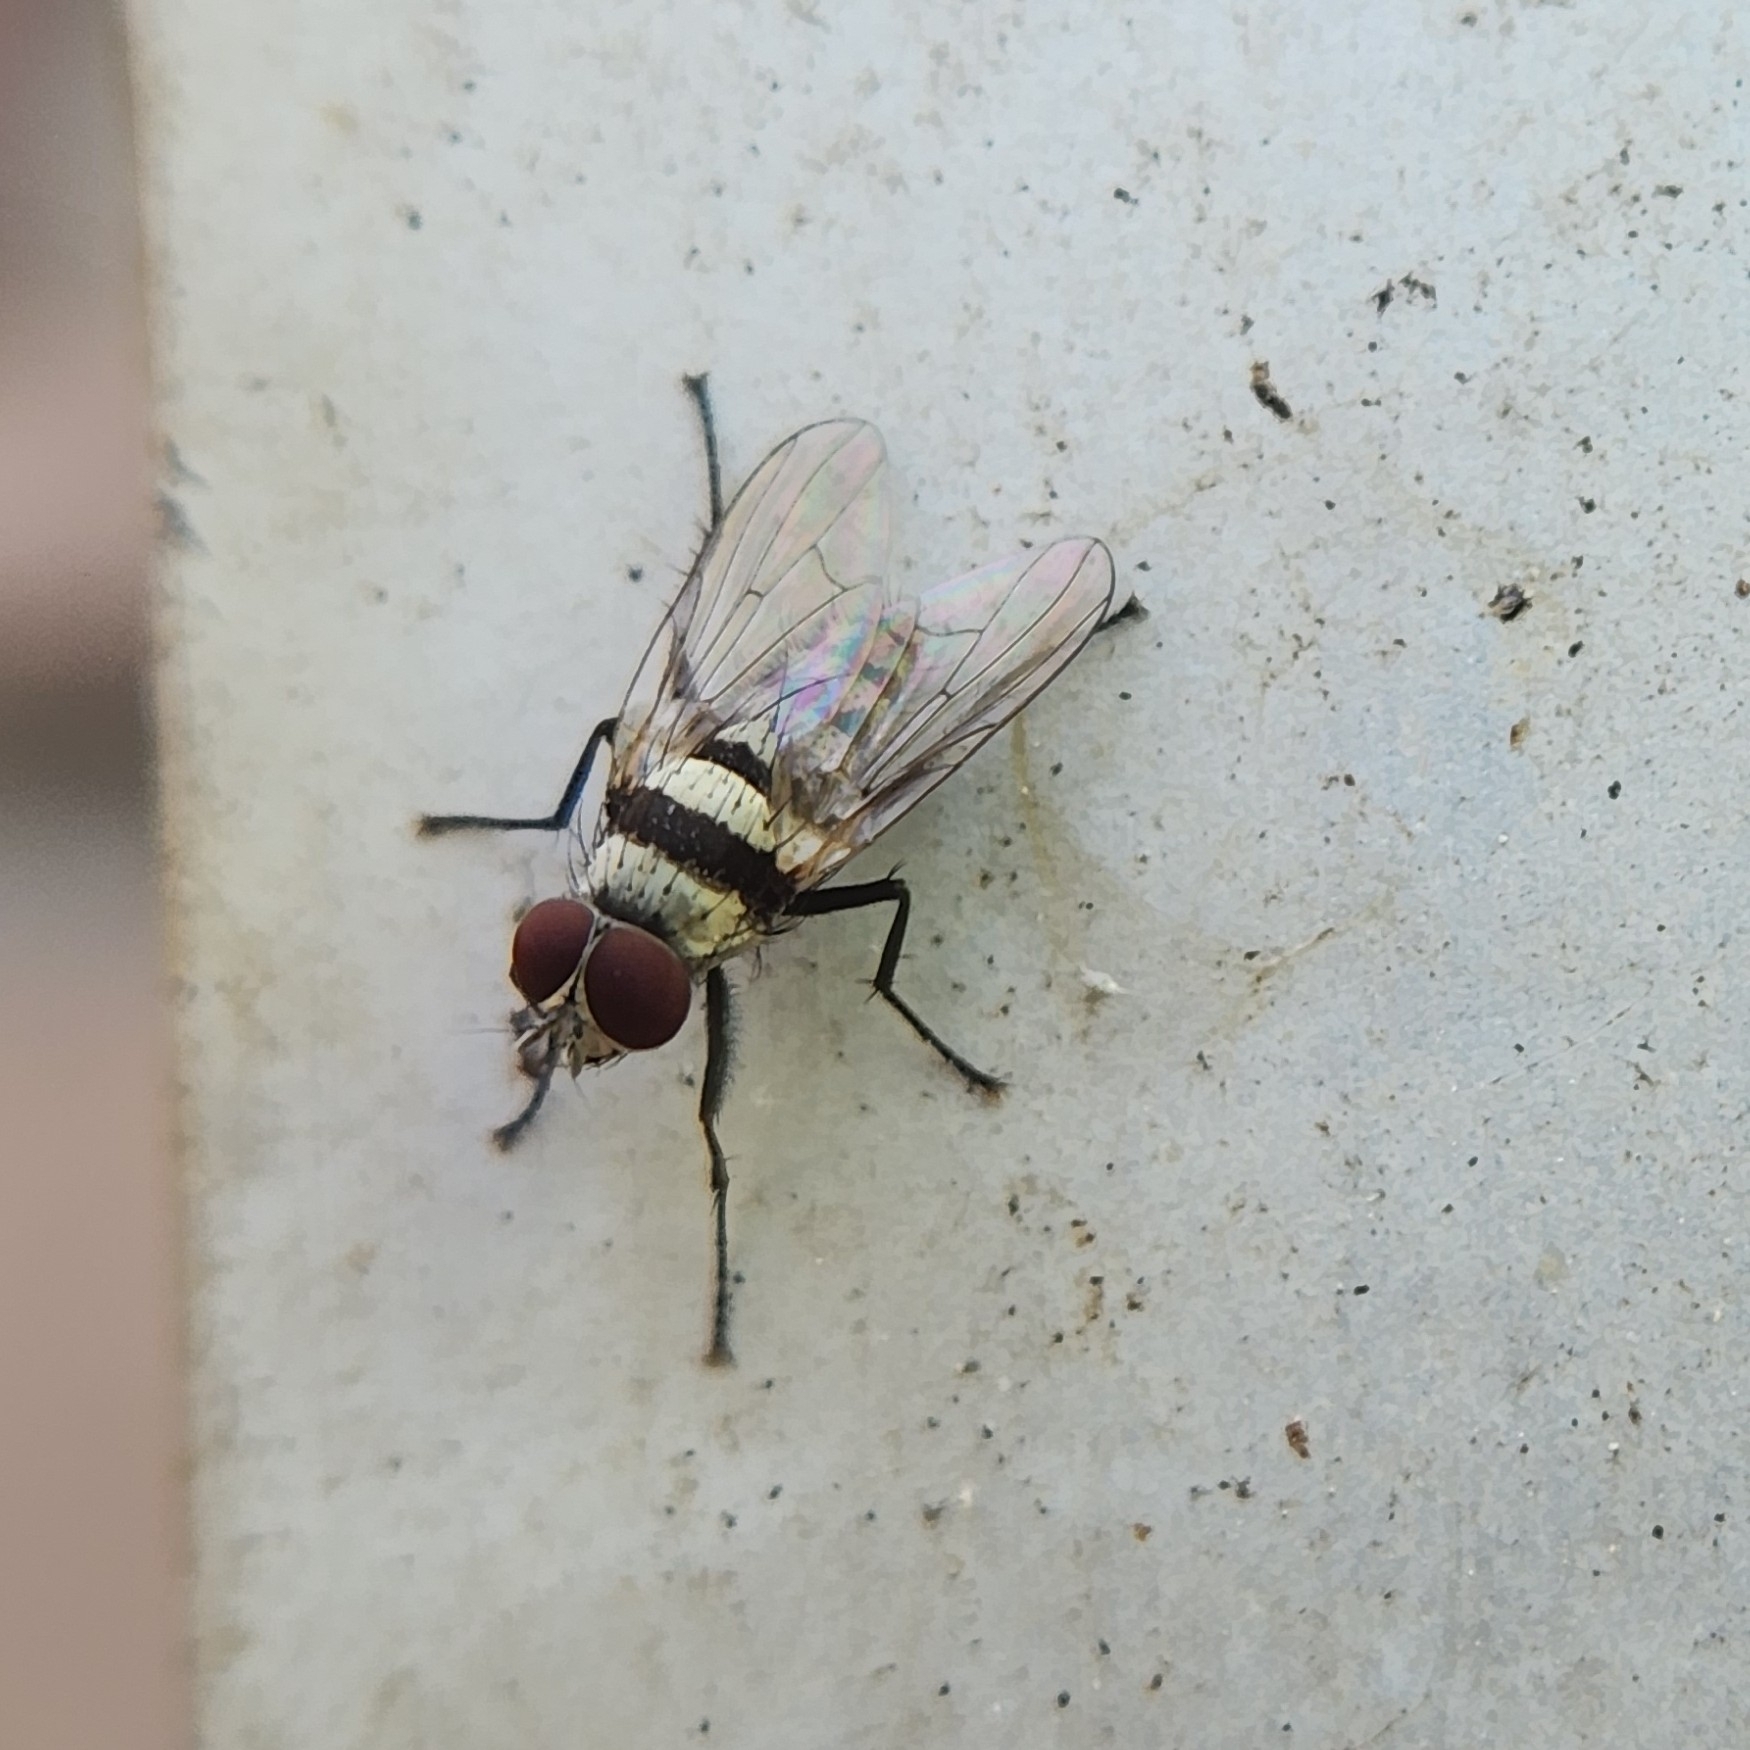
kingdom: Animalia
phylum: Arthropoda
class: Insecta
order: Diptera
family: Anthomyiidae
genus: Anthomyia
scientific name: Anthomyia illocata
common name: Fly
